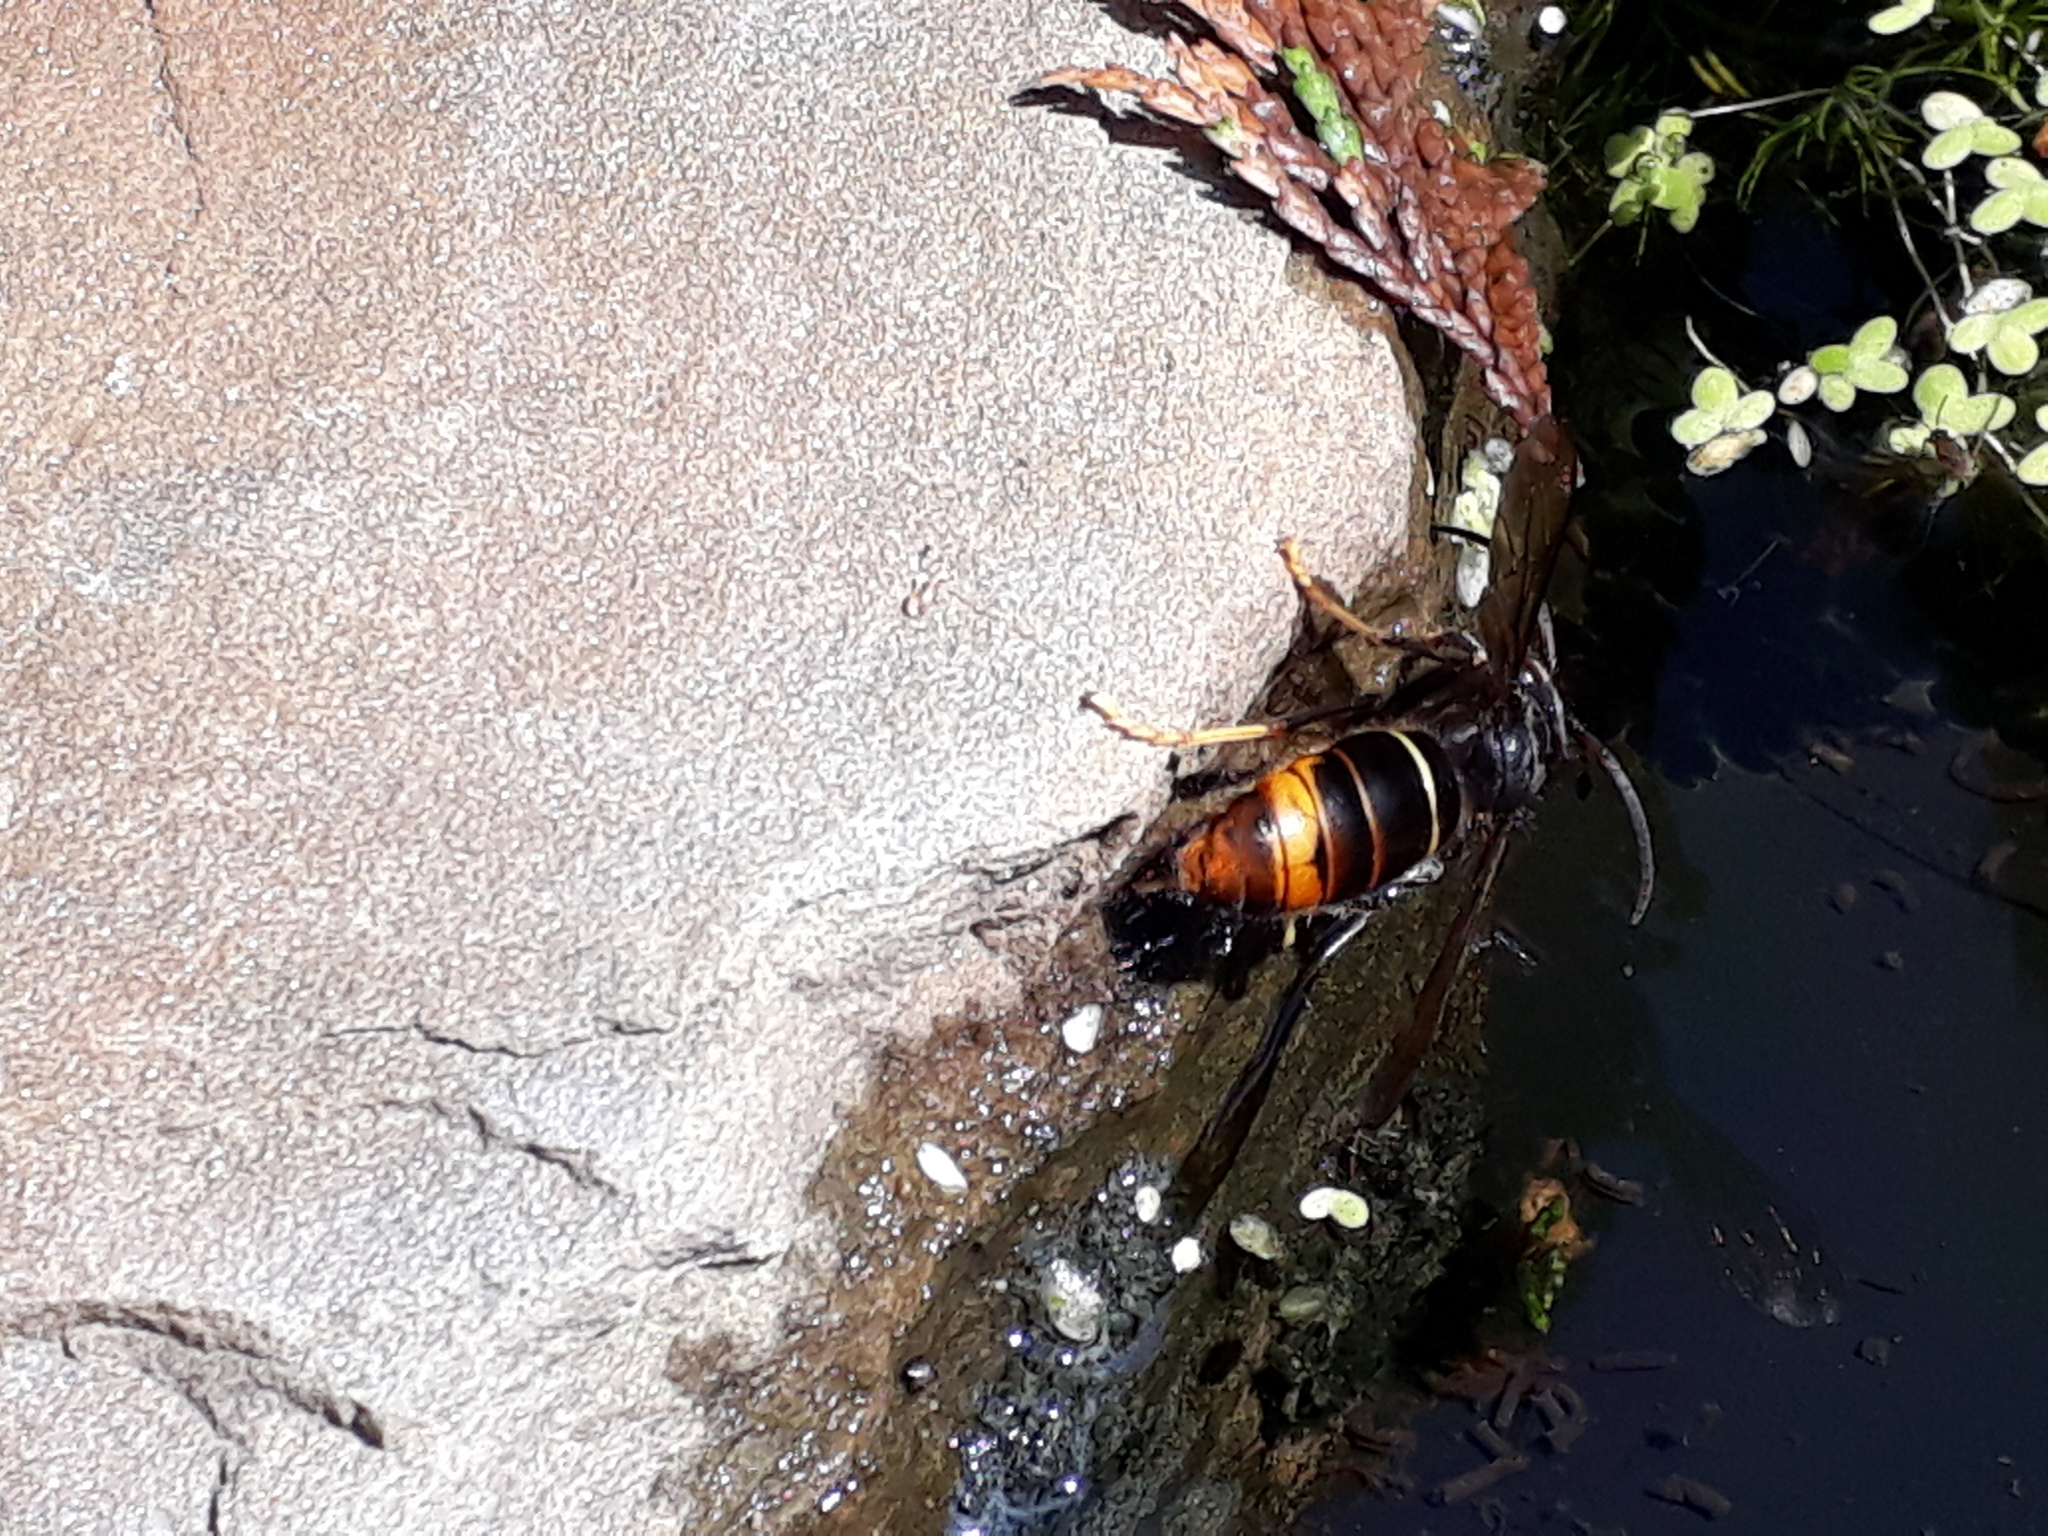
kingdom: Animalia
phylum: Arthropoda
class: Insecta
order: Hymenoptera
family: Vespidae
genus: Vespa
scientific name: Vespa velutina
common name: Asian hornet
